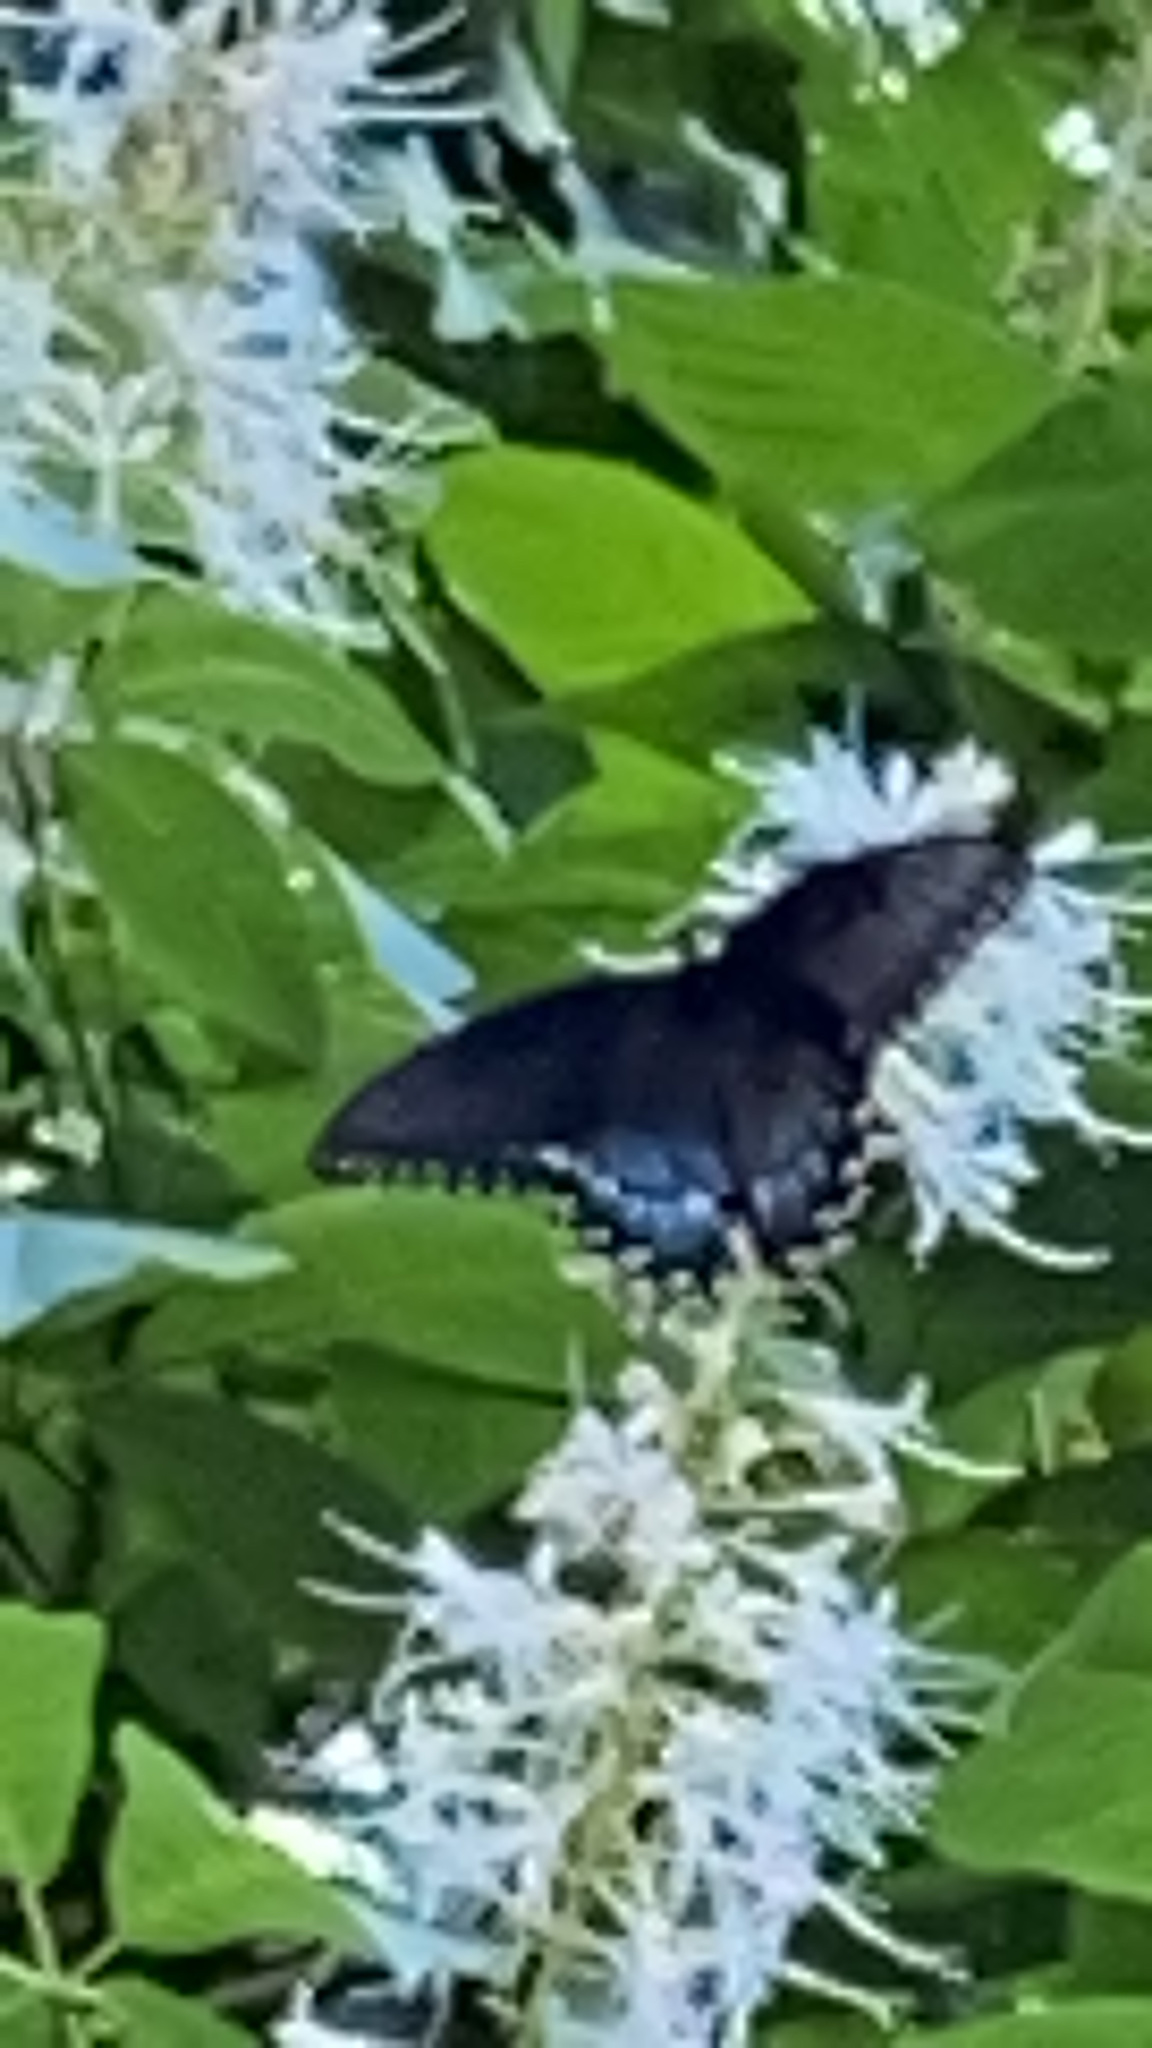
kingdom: Animalia
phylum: Arthropoda
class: Insecta
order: Lepidoptera
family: Papilionidae
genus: Papilio
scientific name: Papilio glaucus
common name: Tiger swallowtail
